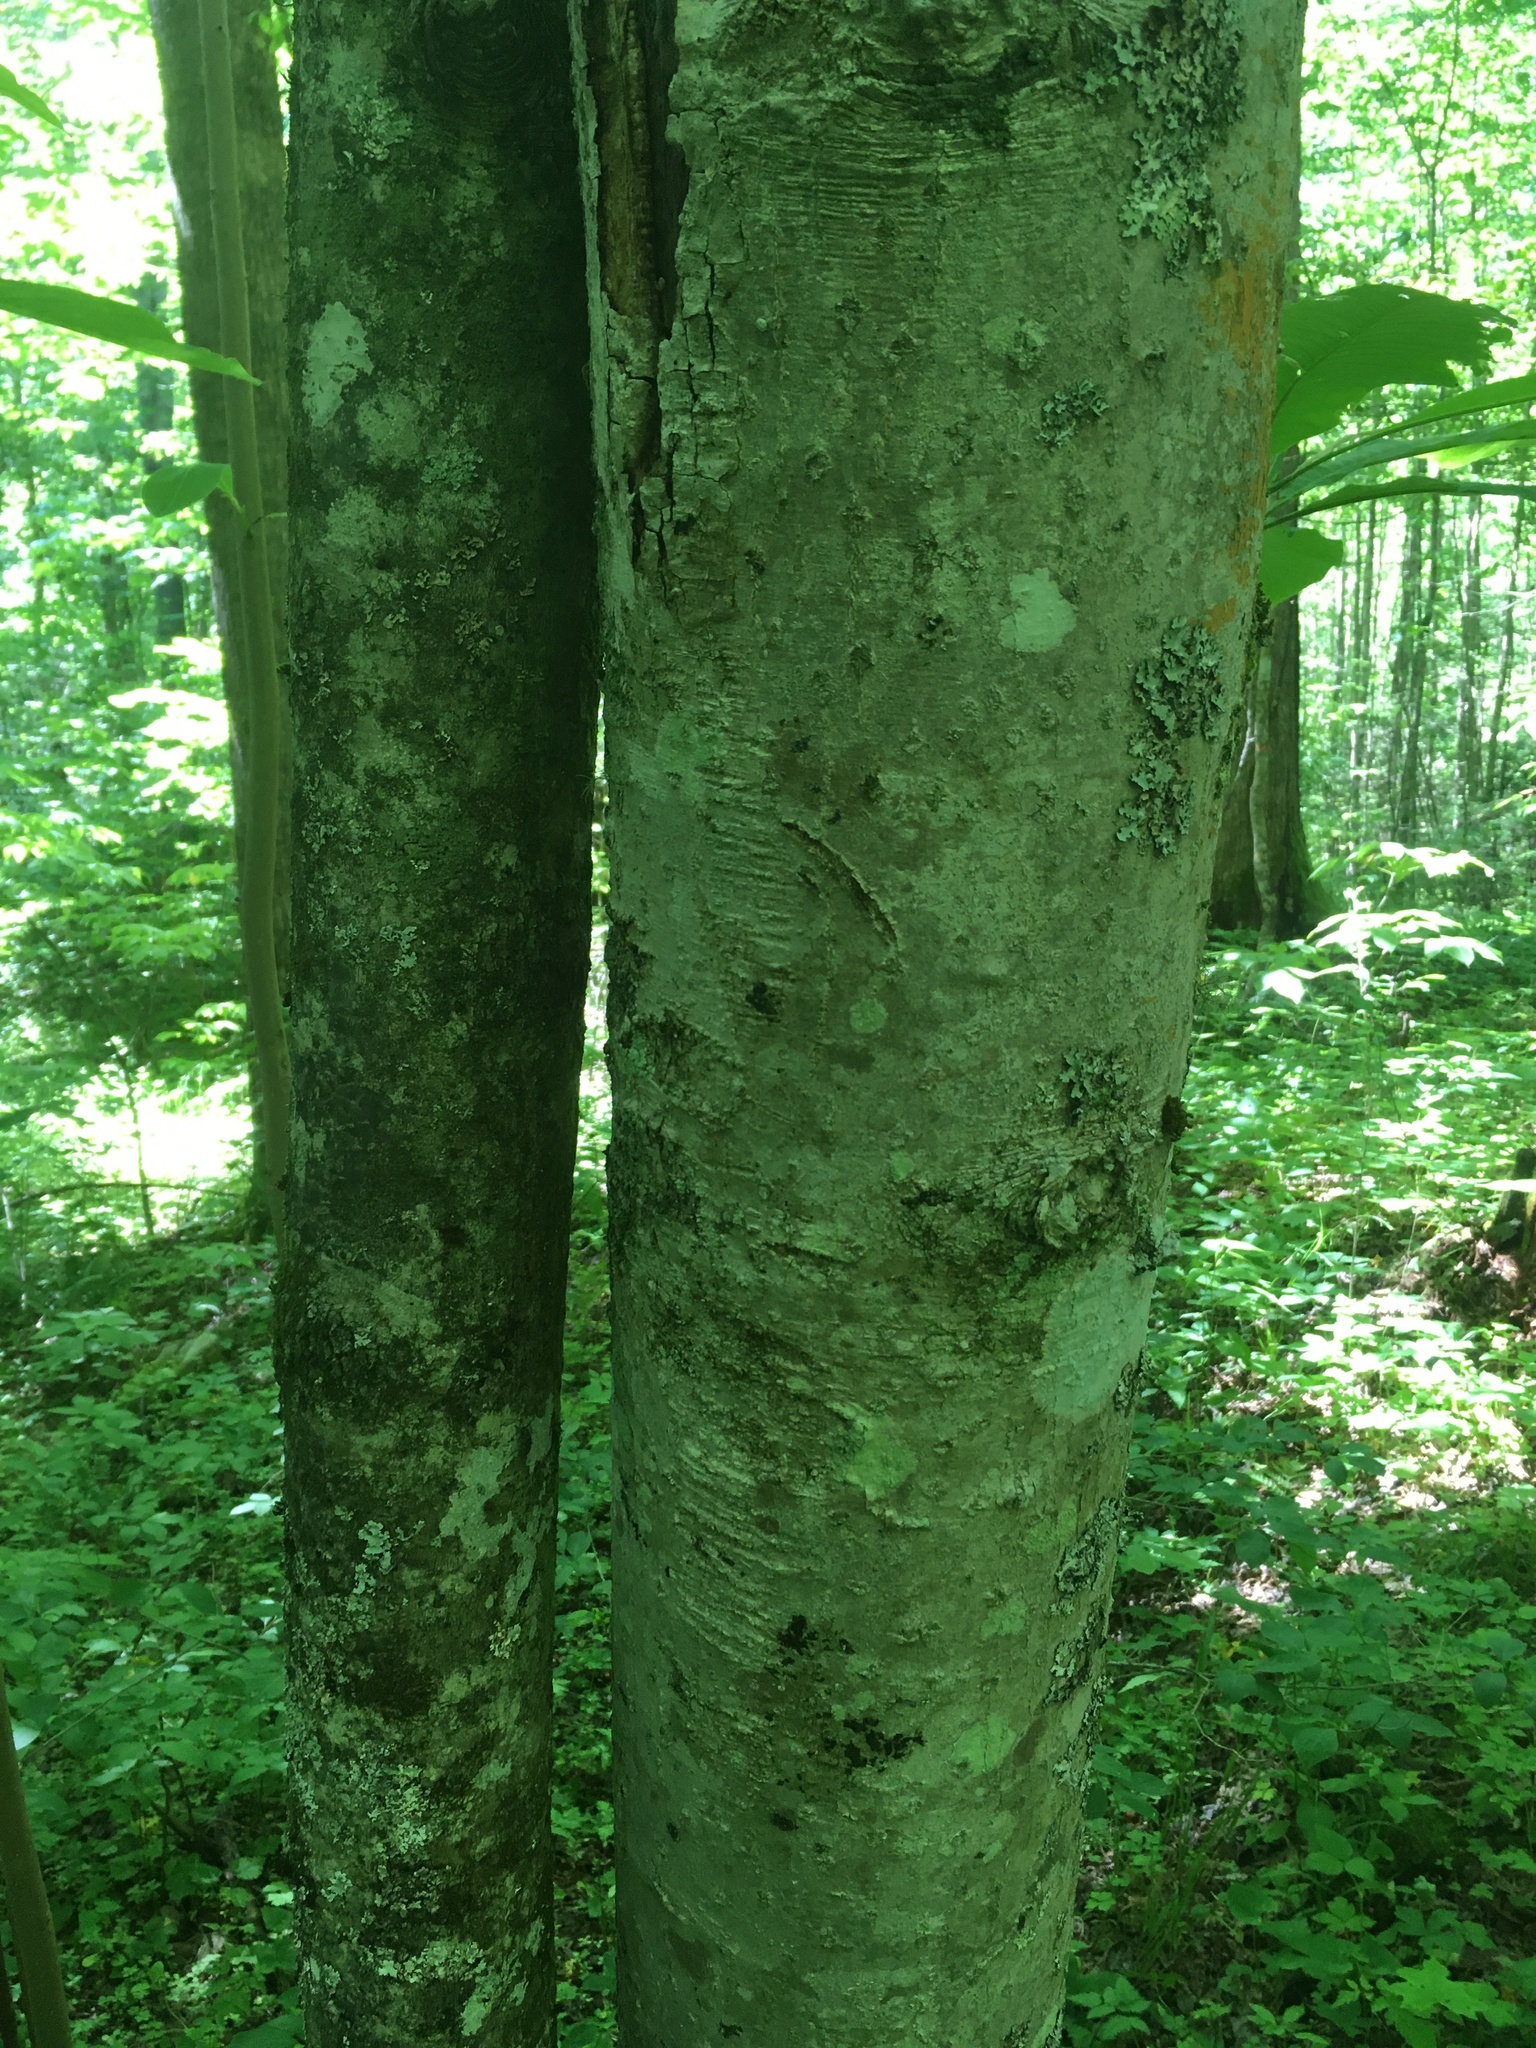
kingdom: Plantae
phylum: Tracheophyta
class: Magnoliopsida
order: Magnoliales
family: Magnoliaceae
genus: Magnolia
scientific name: Magnolia tripetala
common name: Umbrella magnolia
